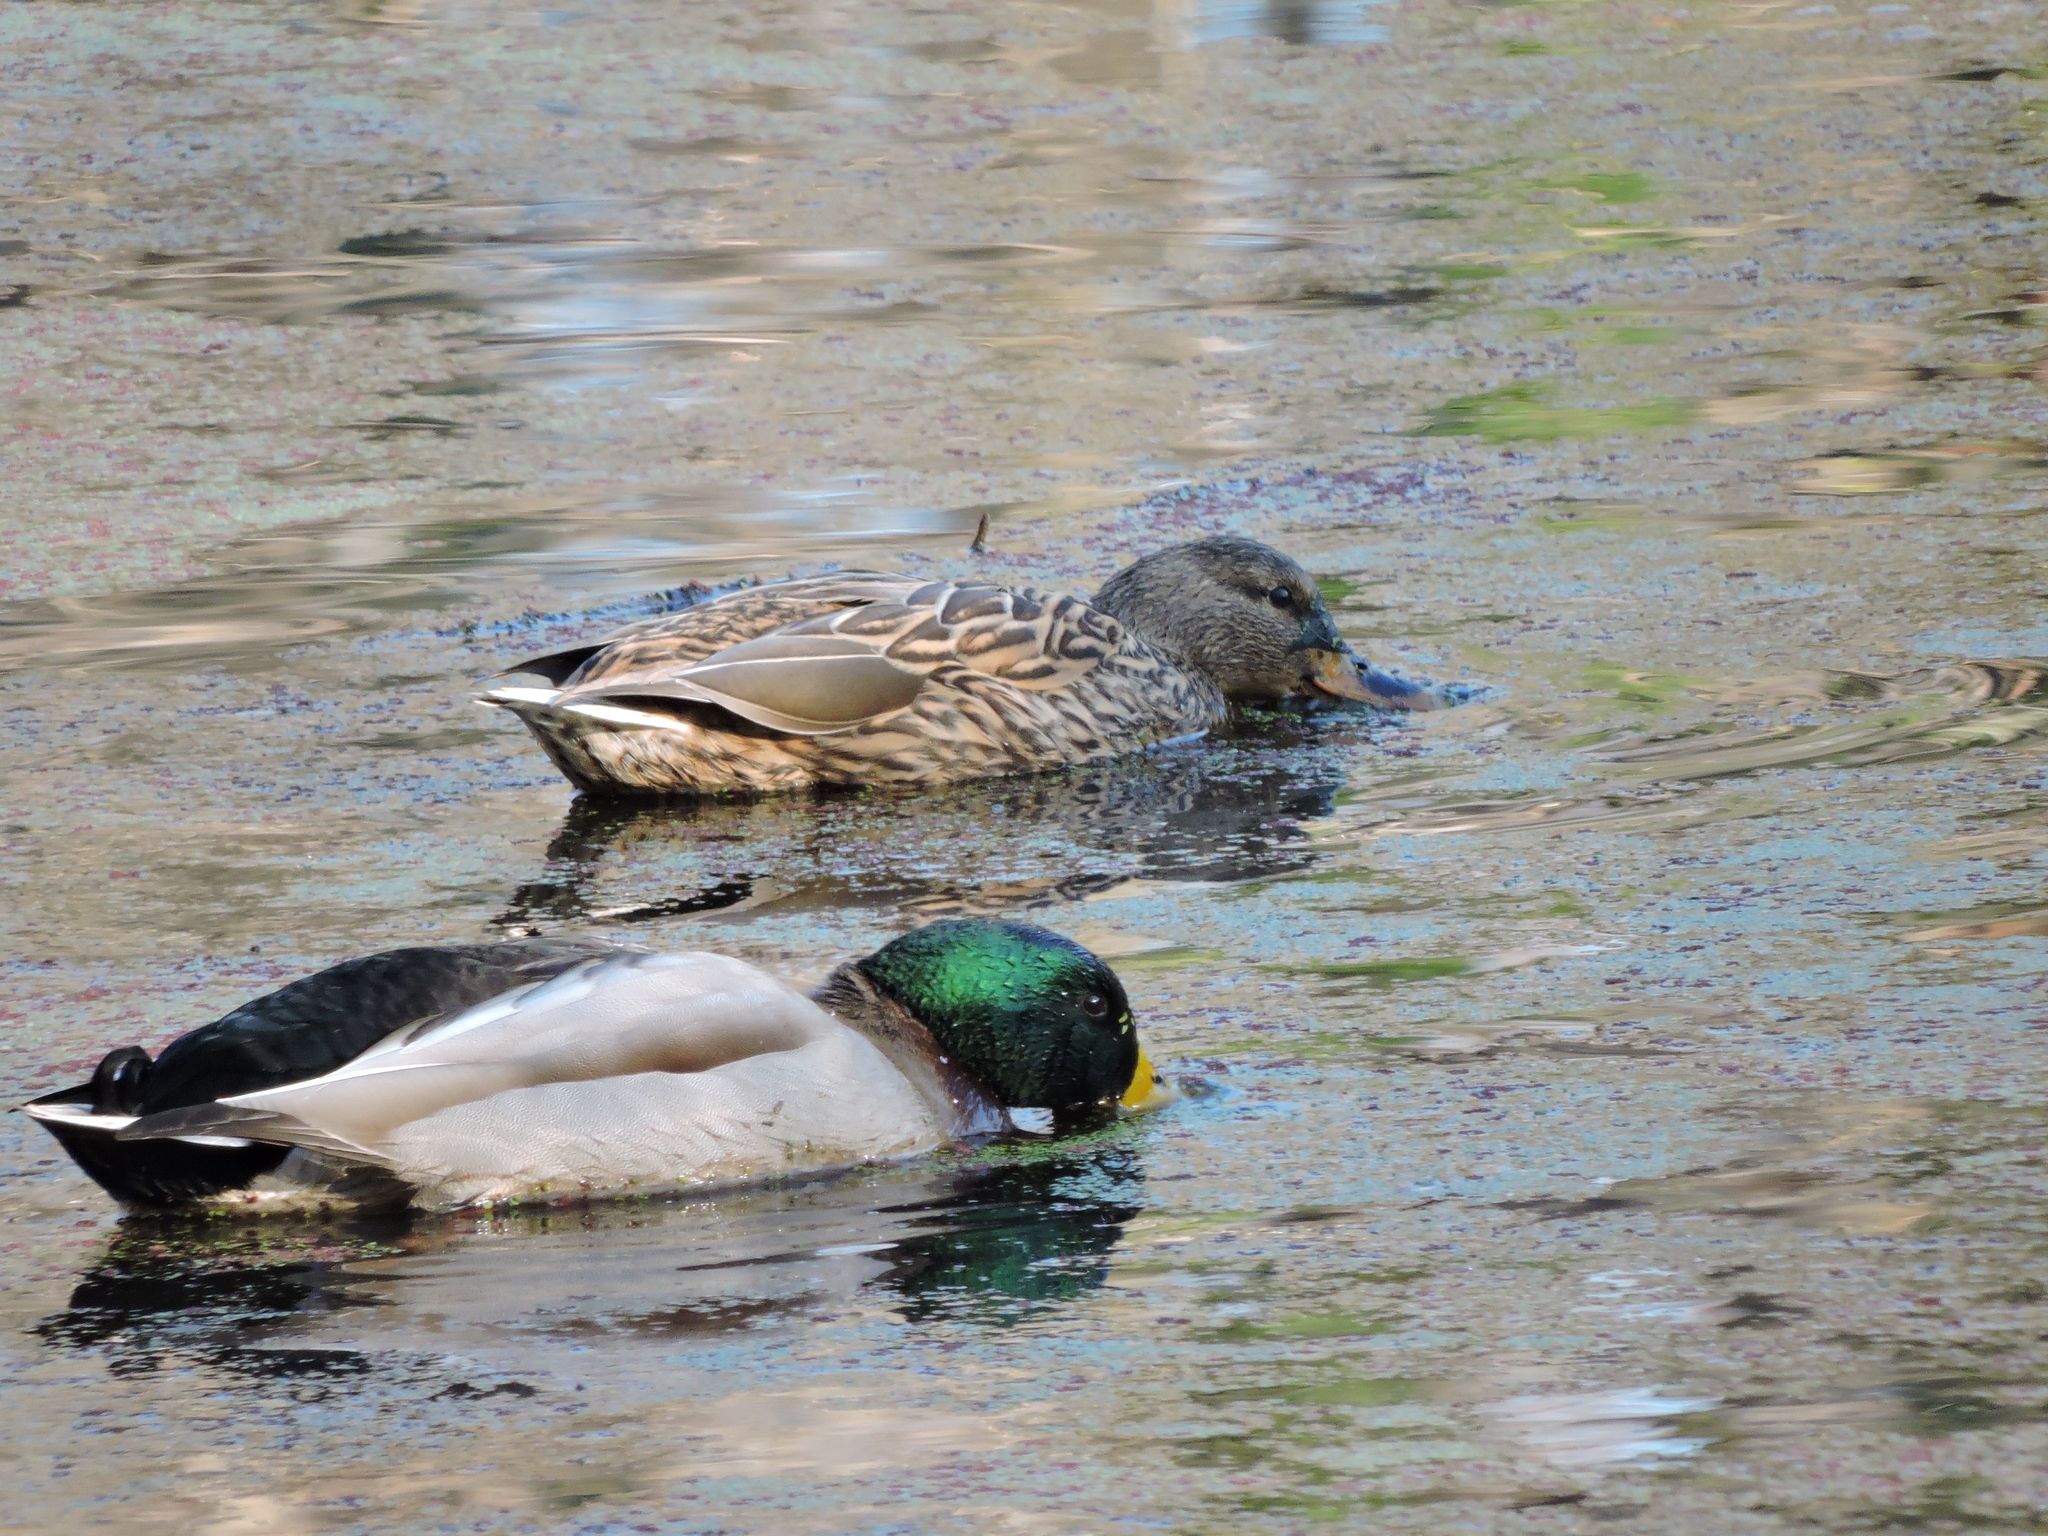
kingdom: Animalia
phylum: Chordata
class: Aves
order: Anseriformes
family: Anatidae
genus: Anas
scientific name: Anas platyrhynchos
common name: Mallard
